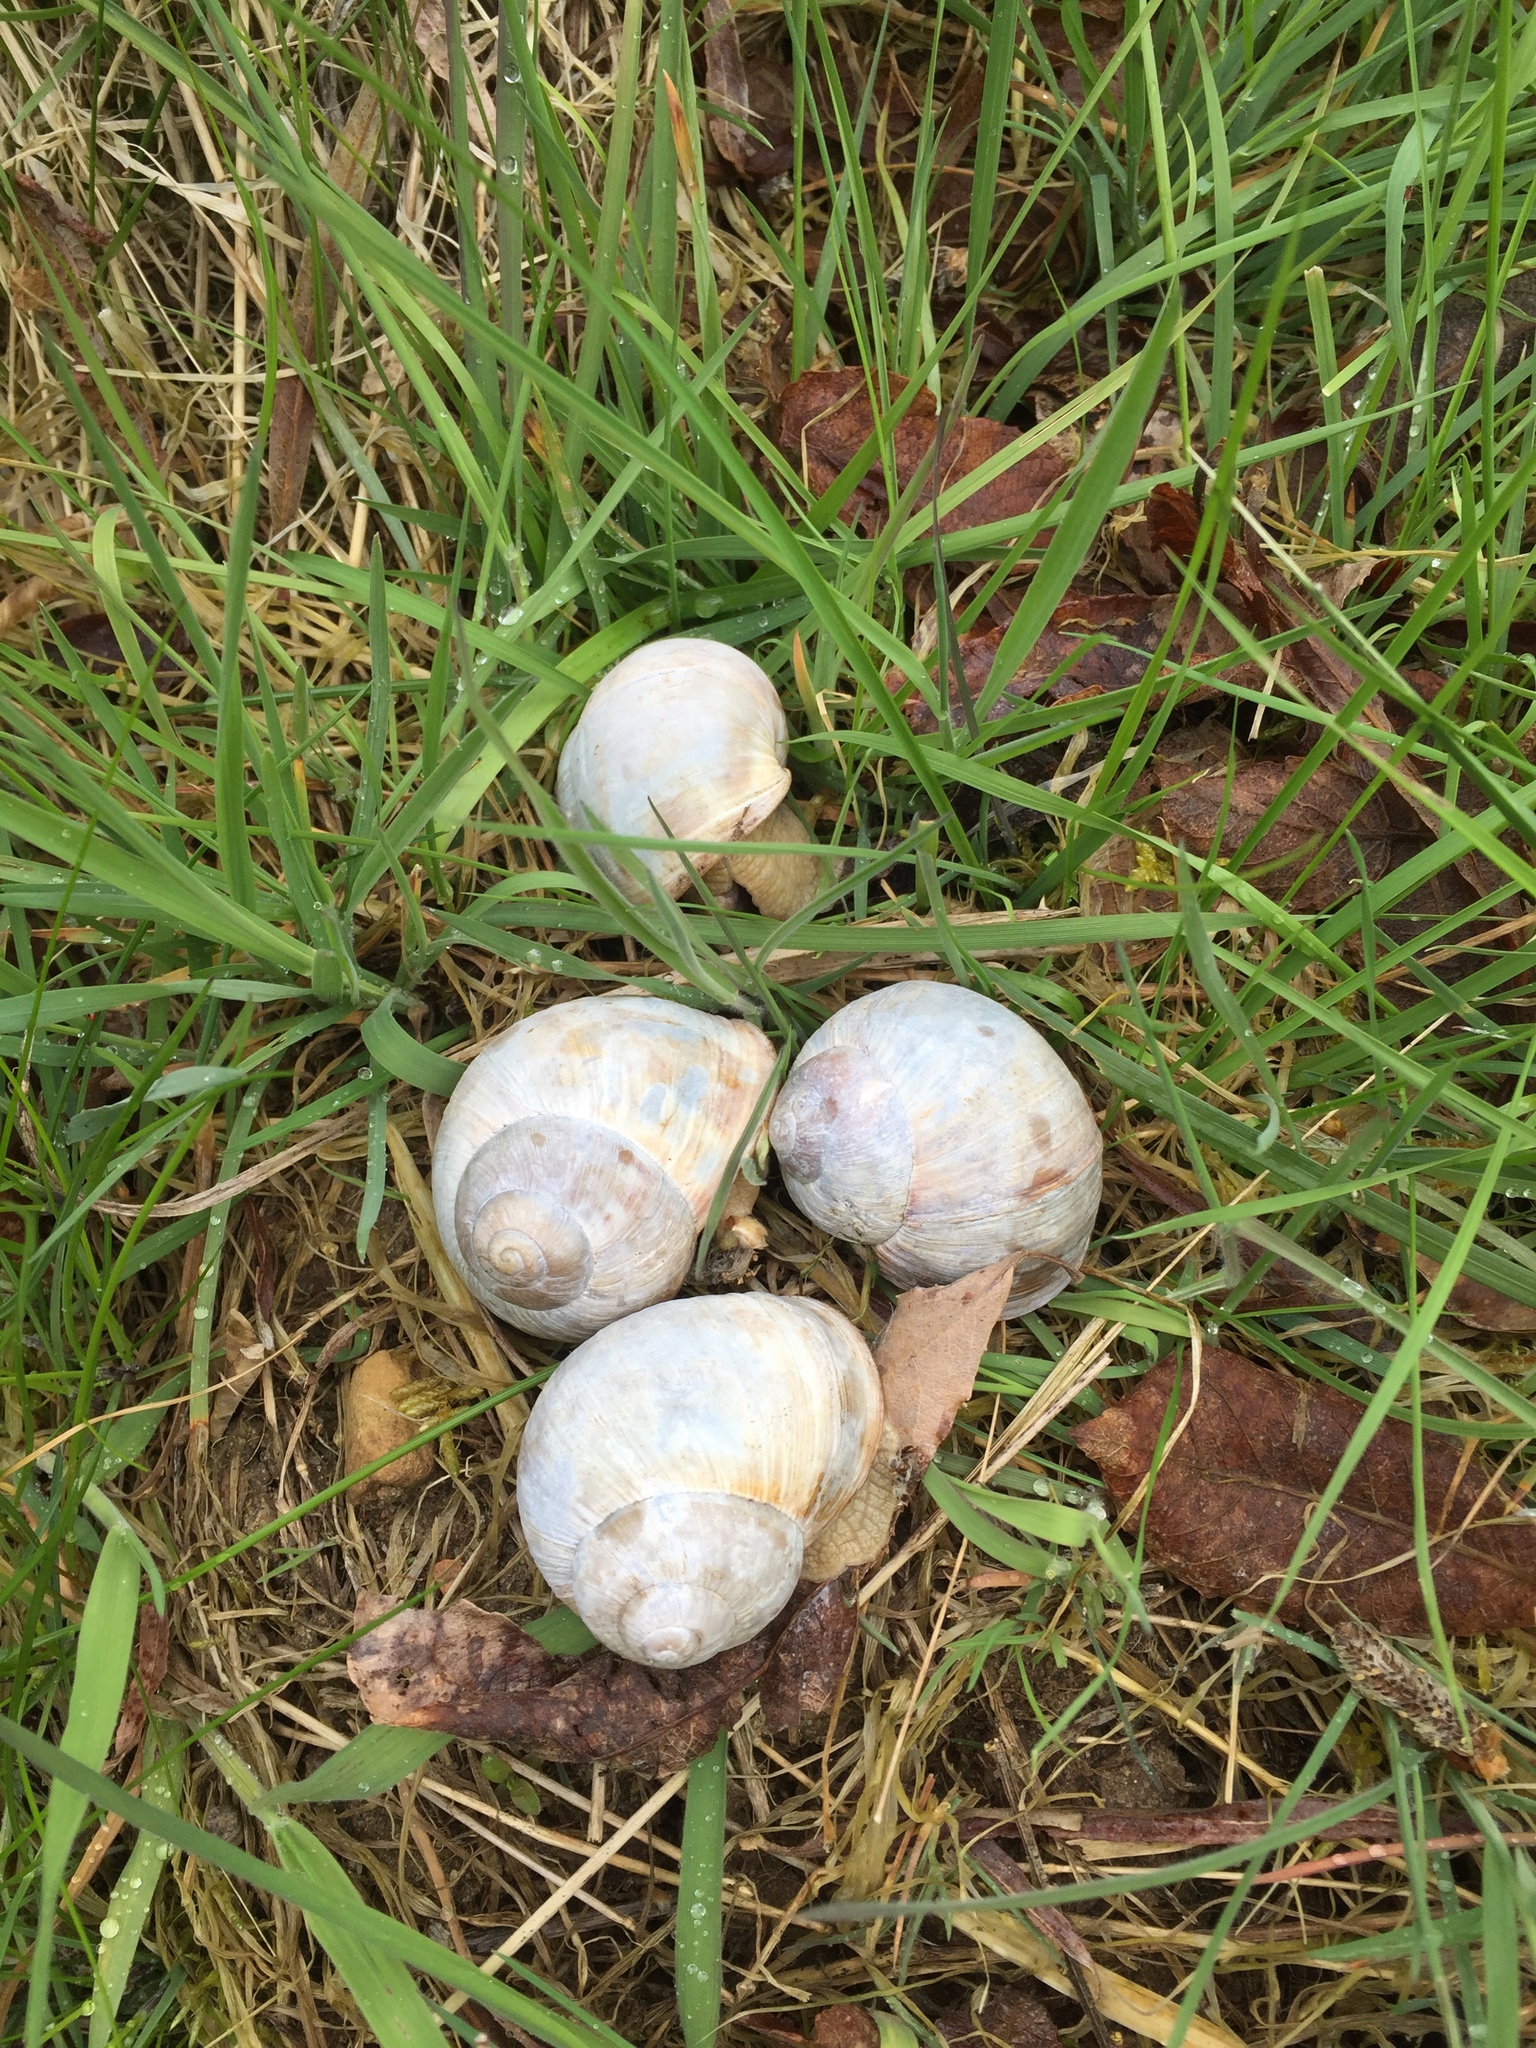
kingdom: Animalia
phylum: Mollusca
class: Gastropoda
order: Stylommatophora
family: Helicidae
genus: Helix
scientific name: Helix pomatia
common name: Roman snail
